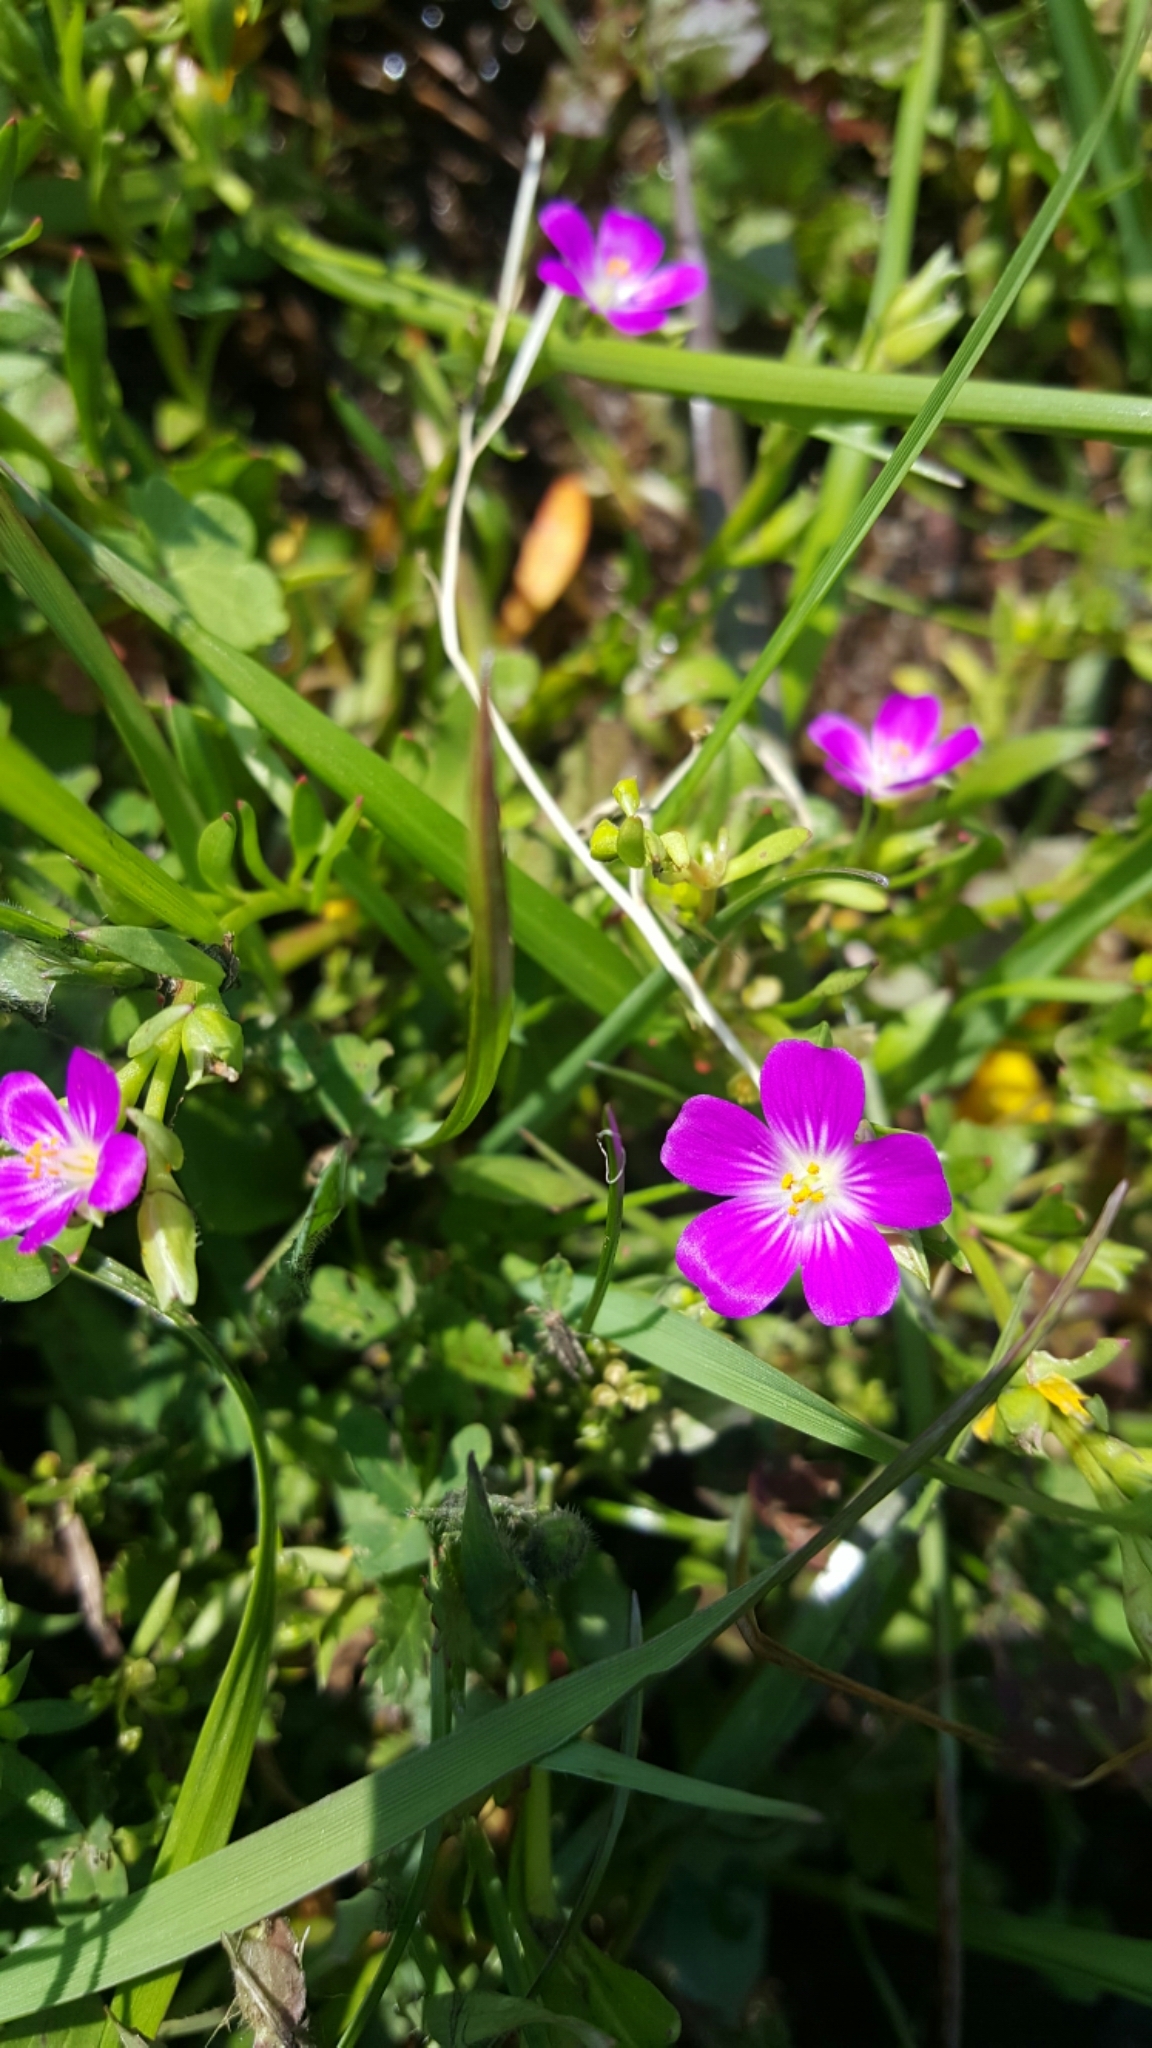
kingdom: Plantae
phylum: Tracheophyta
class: Magnoliopsida
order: Caryophyllales
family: Montiaceae
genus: Calandrinia
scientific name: Calandrinia menziesii
